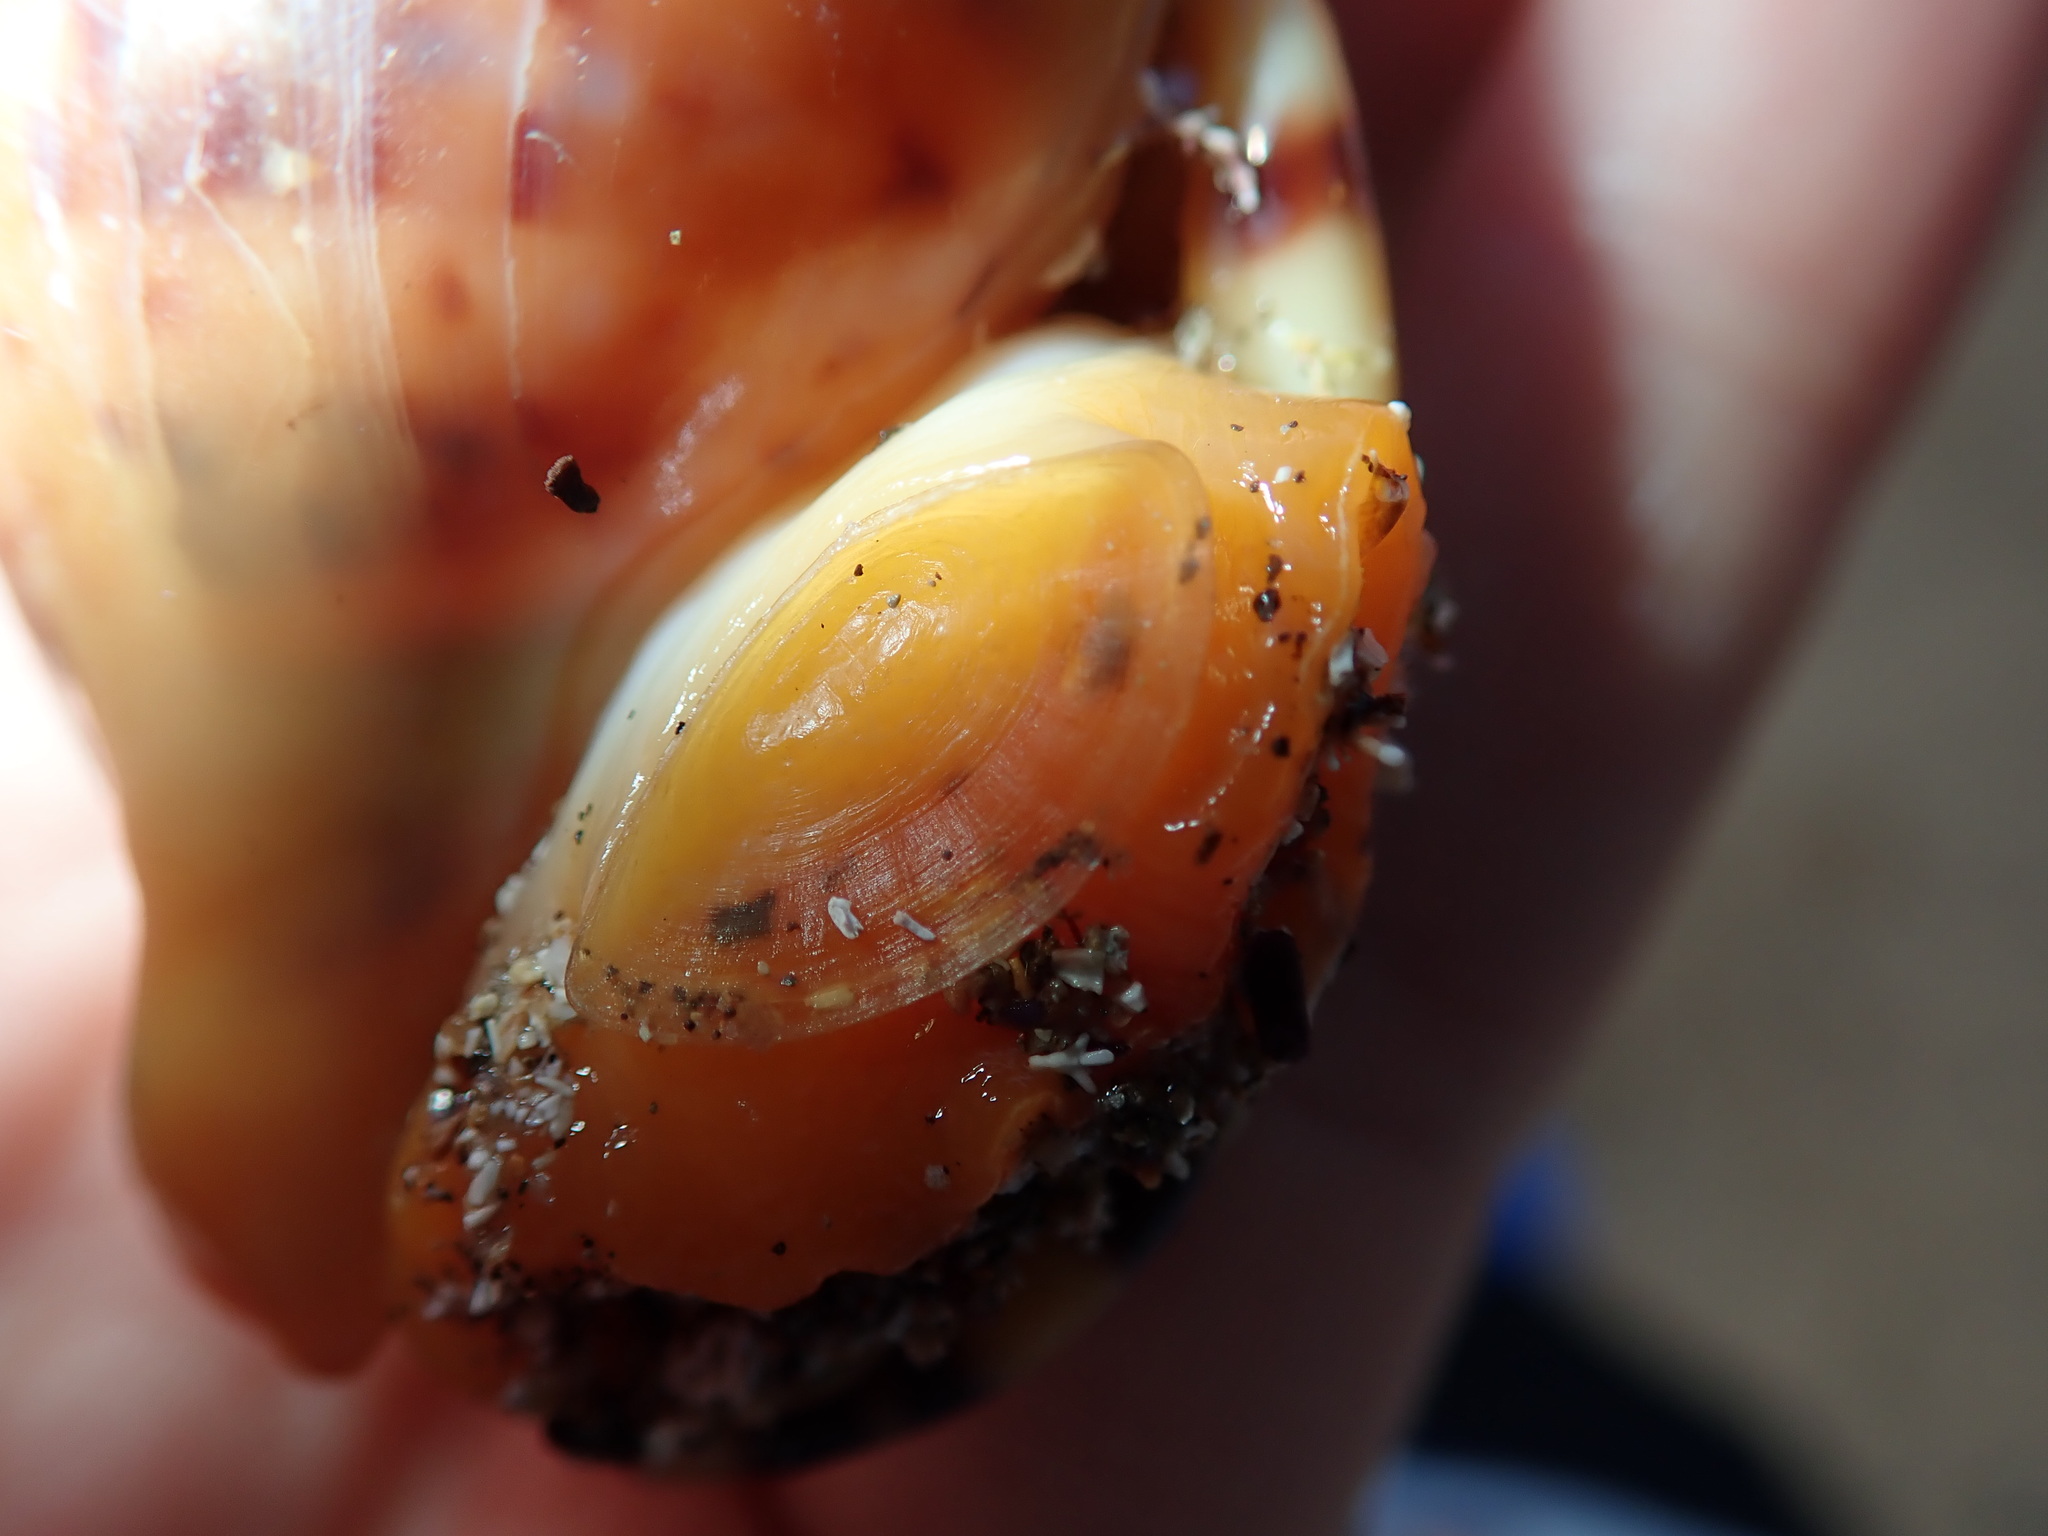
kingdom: Animalia
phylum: Mollusca
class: Gastropoda
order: Littorinimorpha
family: Cassidae
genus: Semicassis
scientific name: Semicassis labiata
